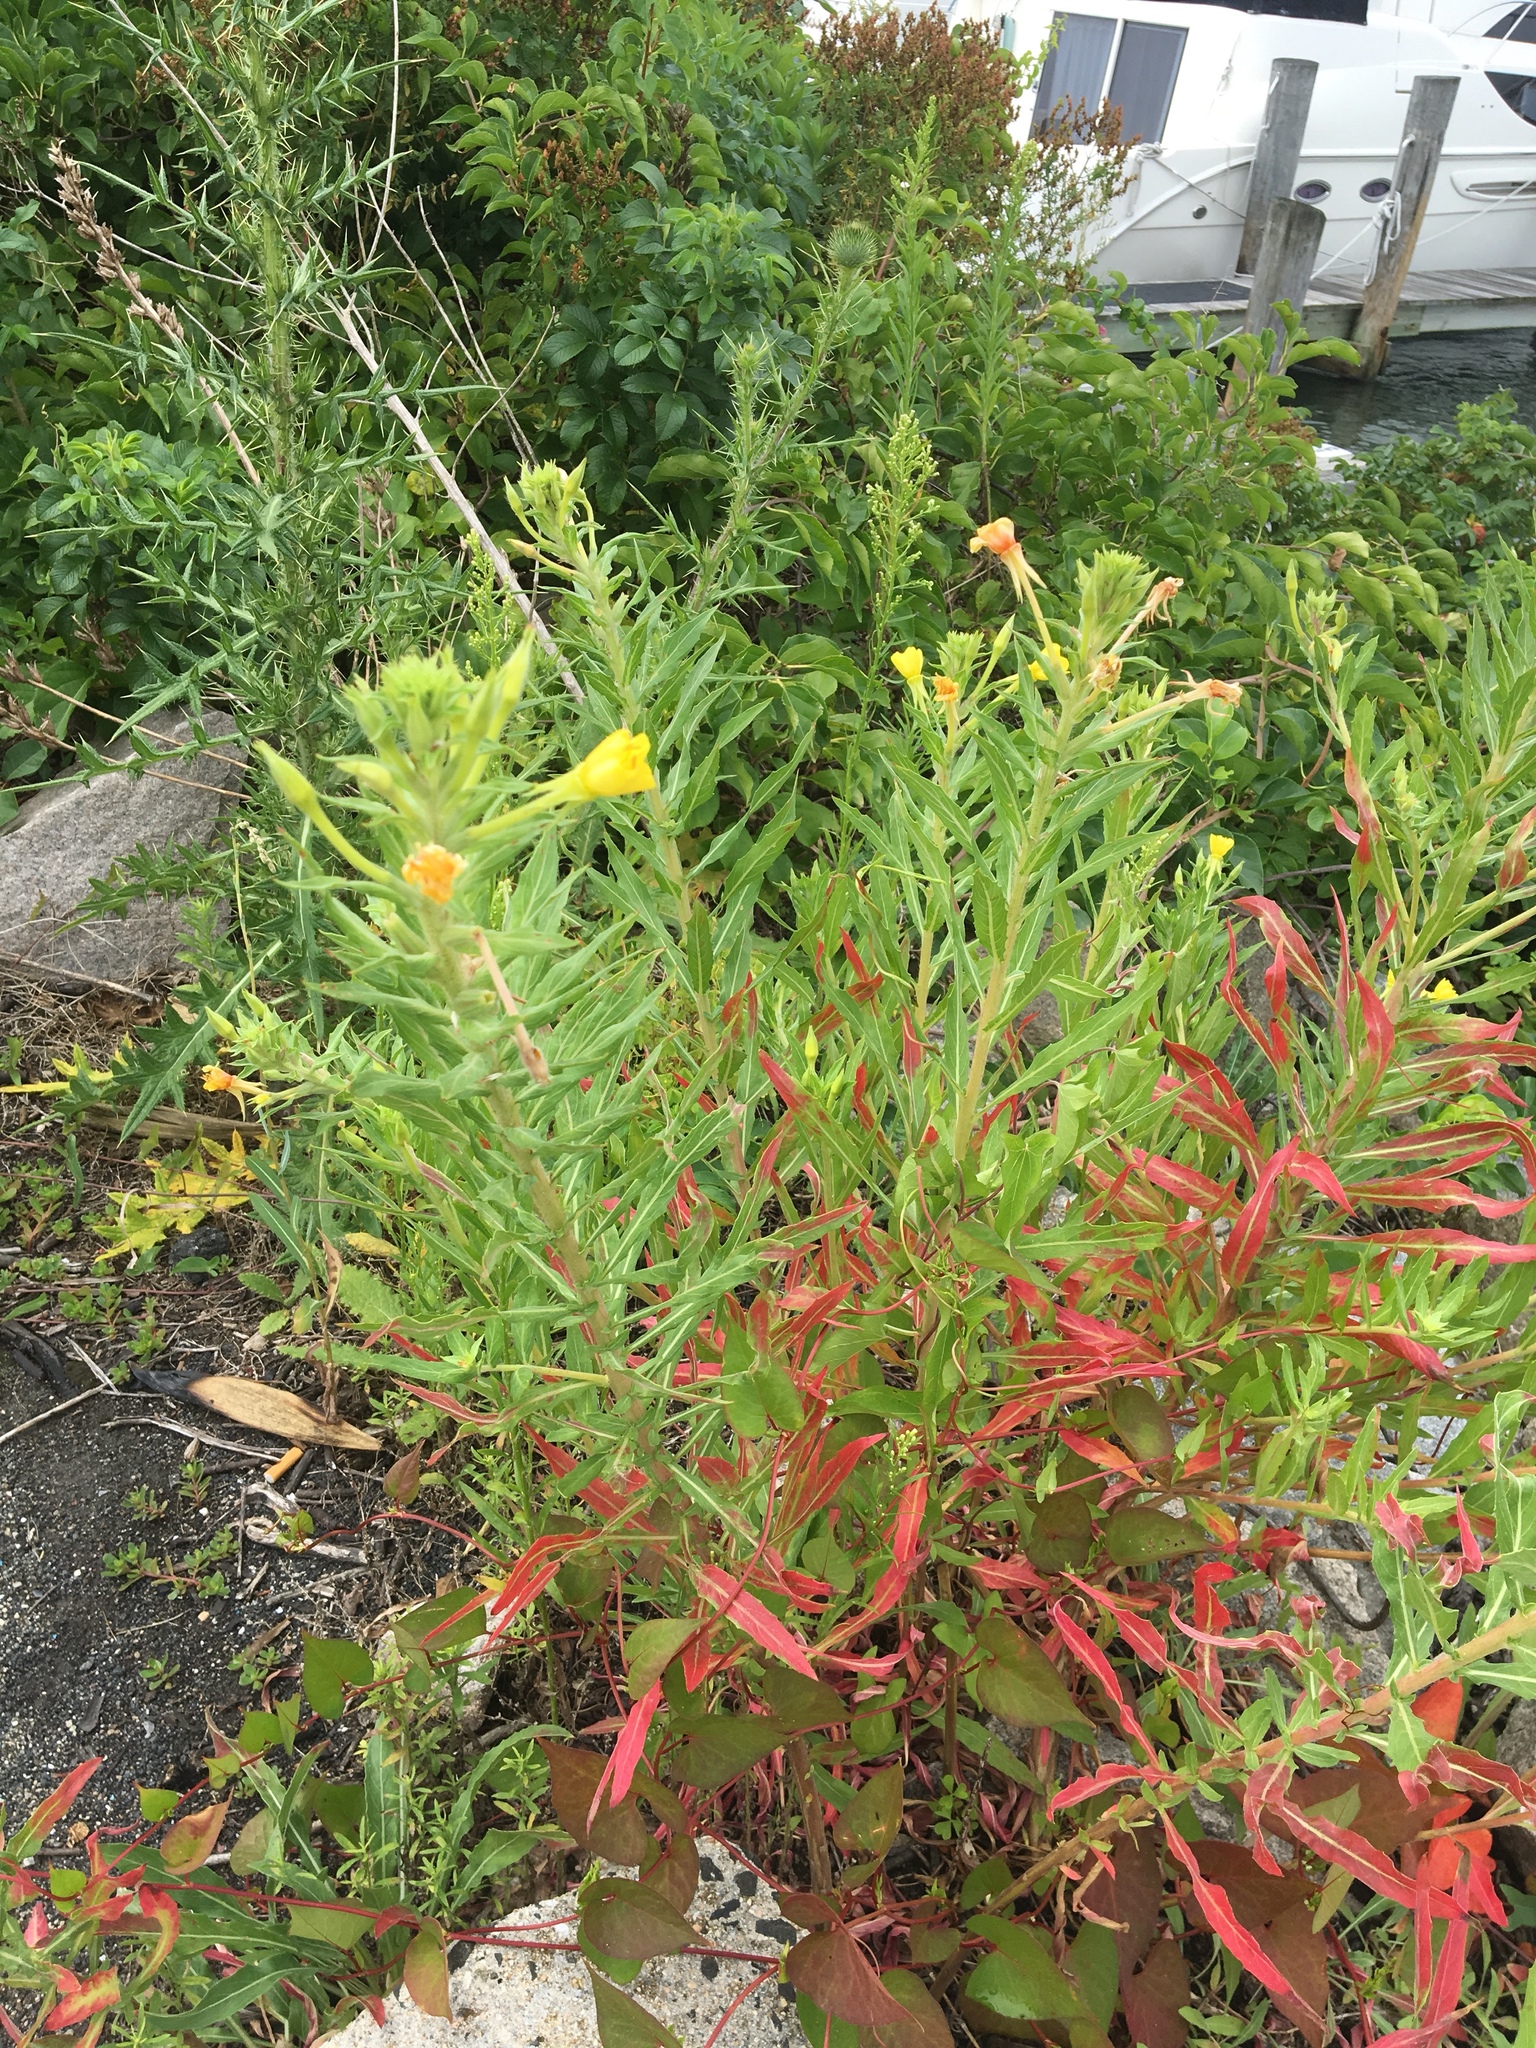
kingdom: Plantae
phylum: Tracheophyta
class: Magnoliopsida
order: Myrtales
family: Onagraceae
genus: Oenothera
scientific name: Oenothera biennis
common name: Common evening-primrose
